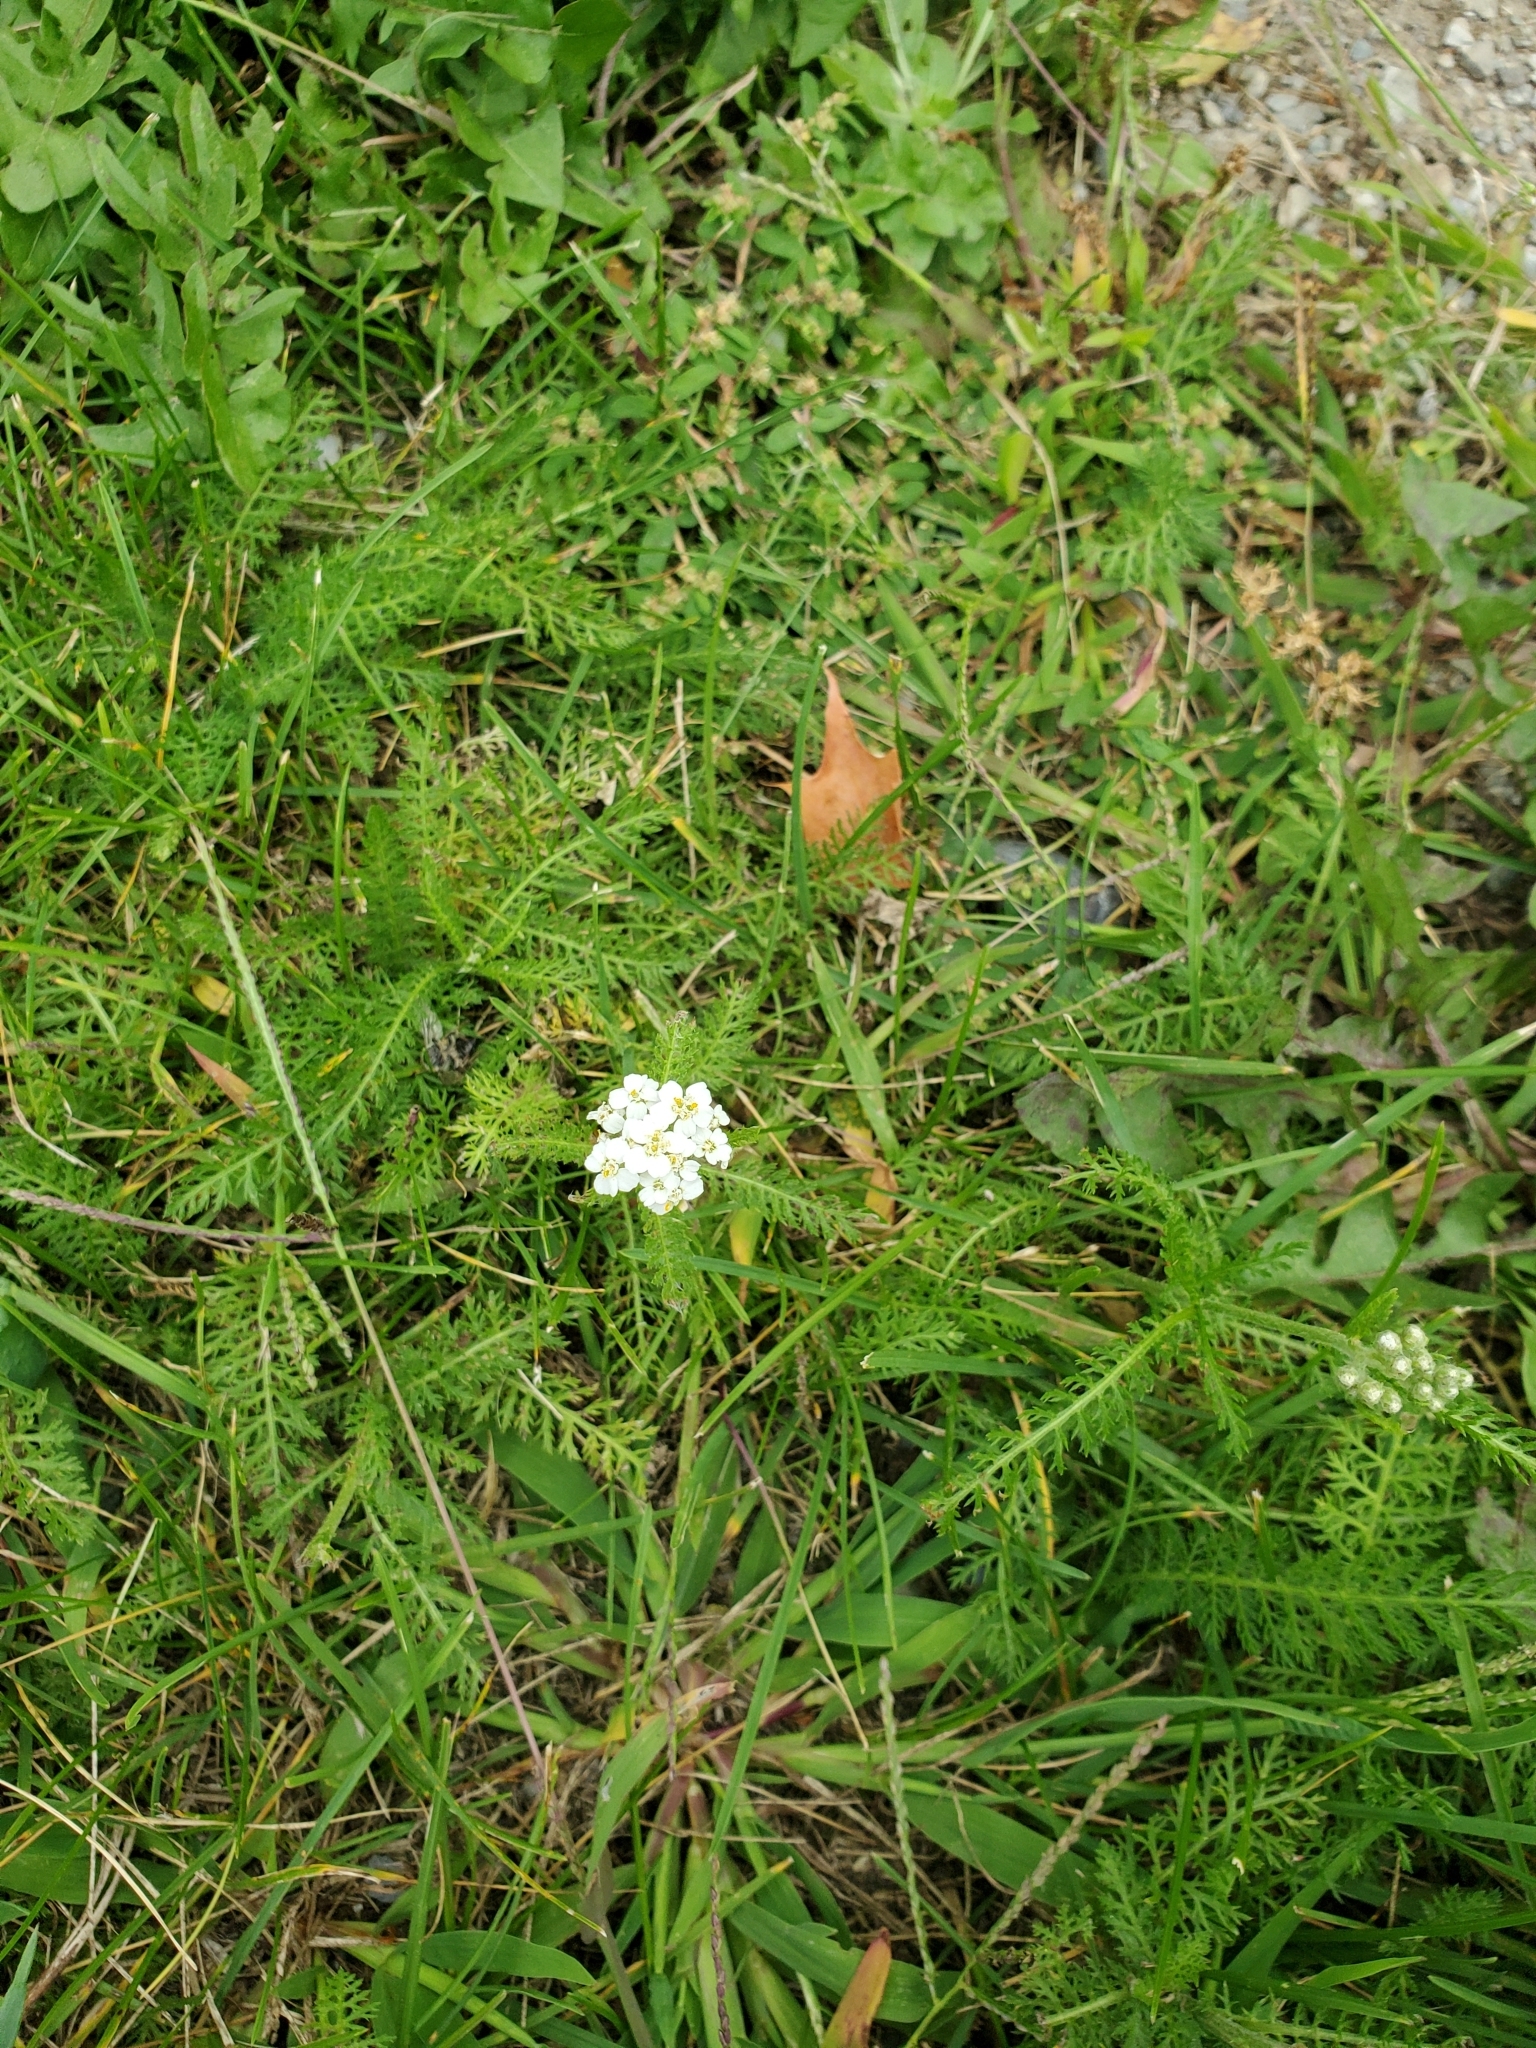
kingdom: Plantae
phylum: Tracheophyta
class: Magnoliopsida
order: Asterales
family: Asteraceae
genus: Achillea
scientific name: Achillea millefolium
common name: Yarrow
